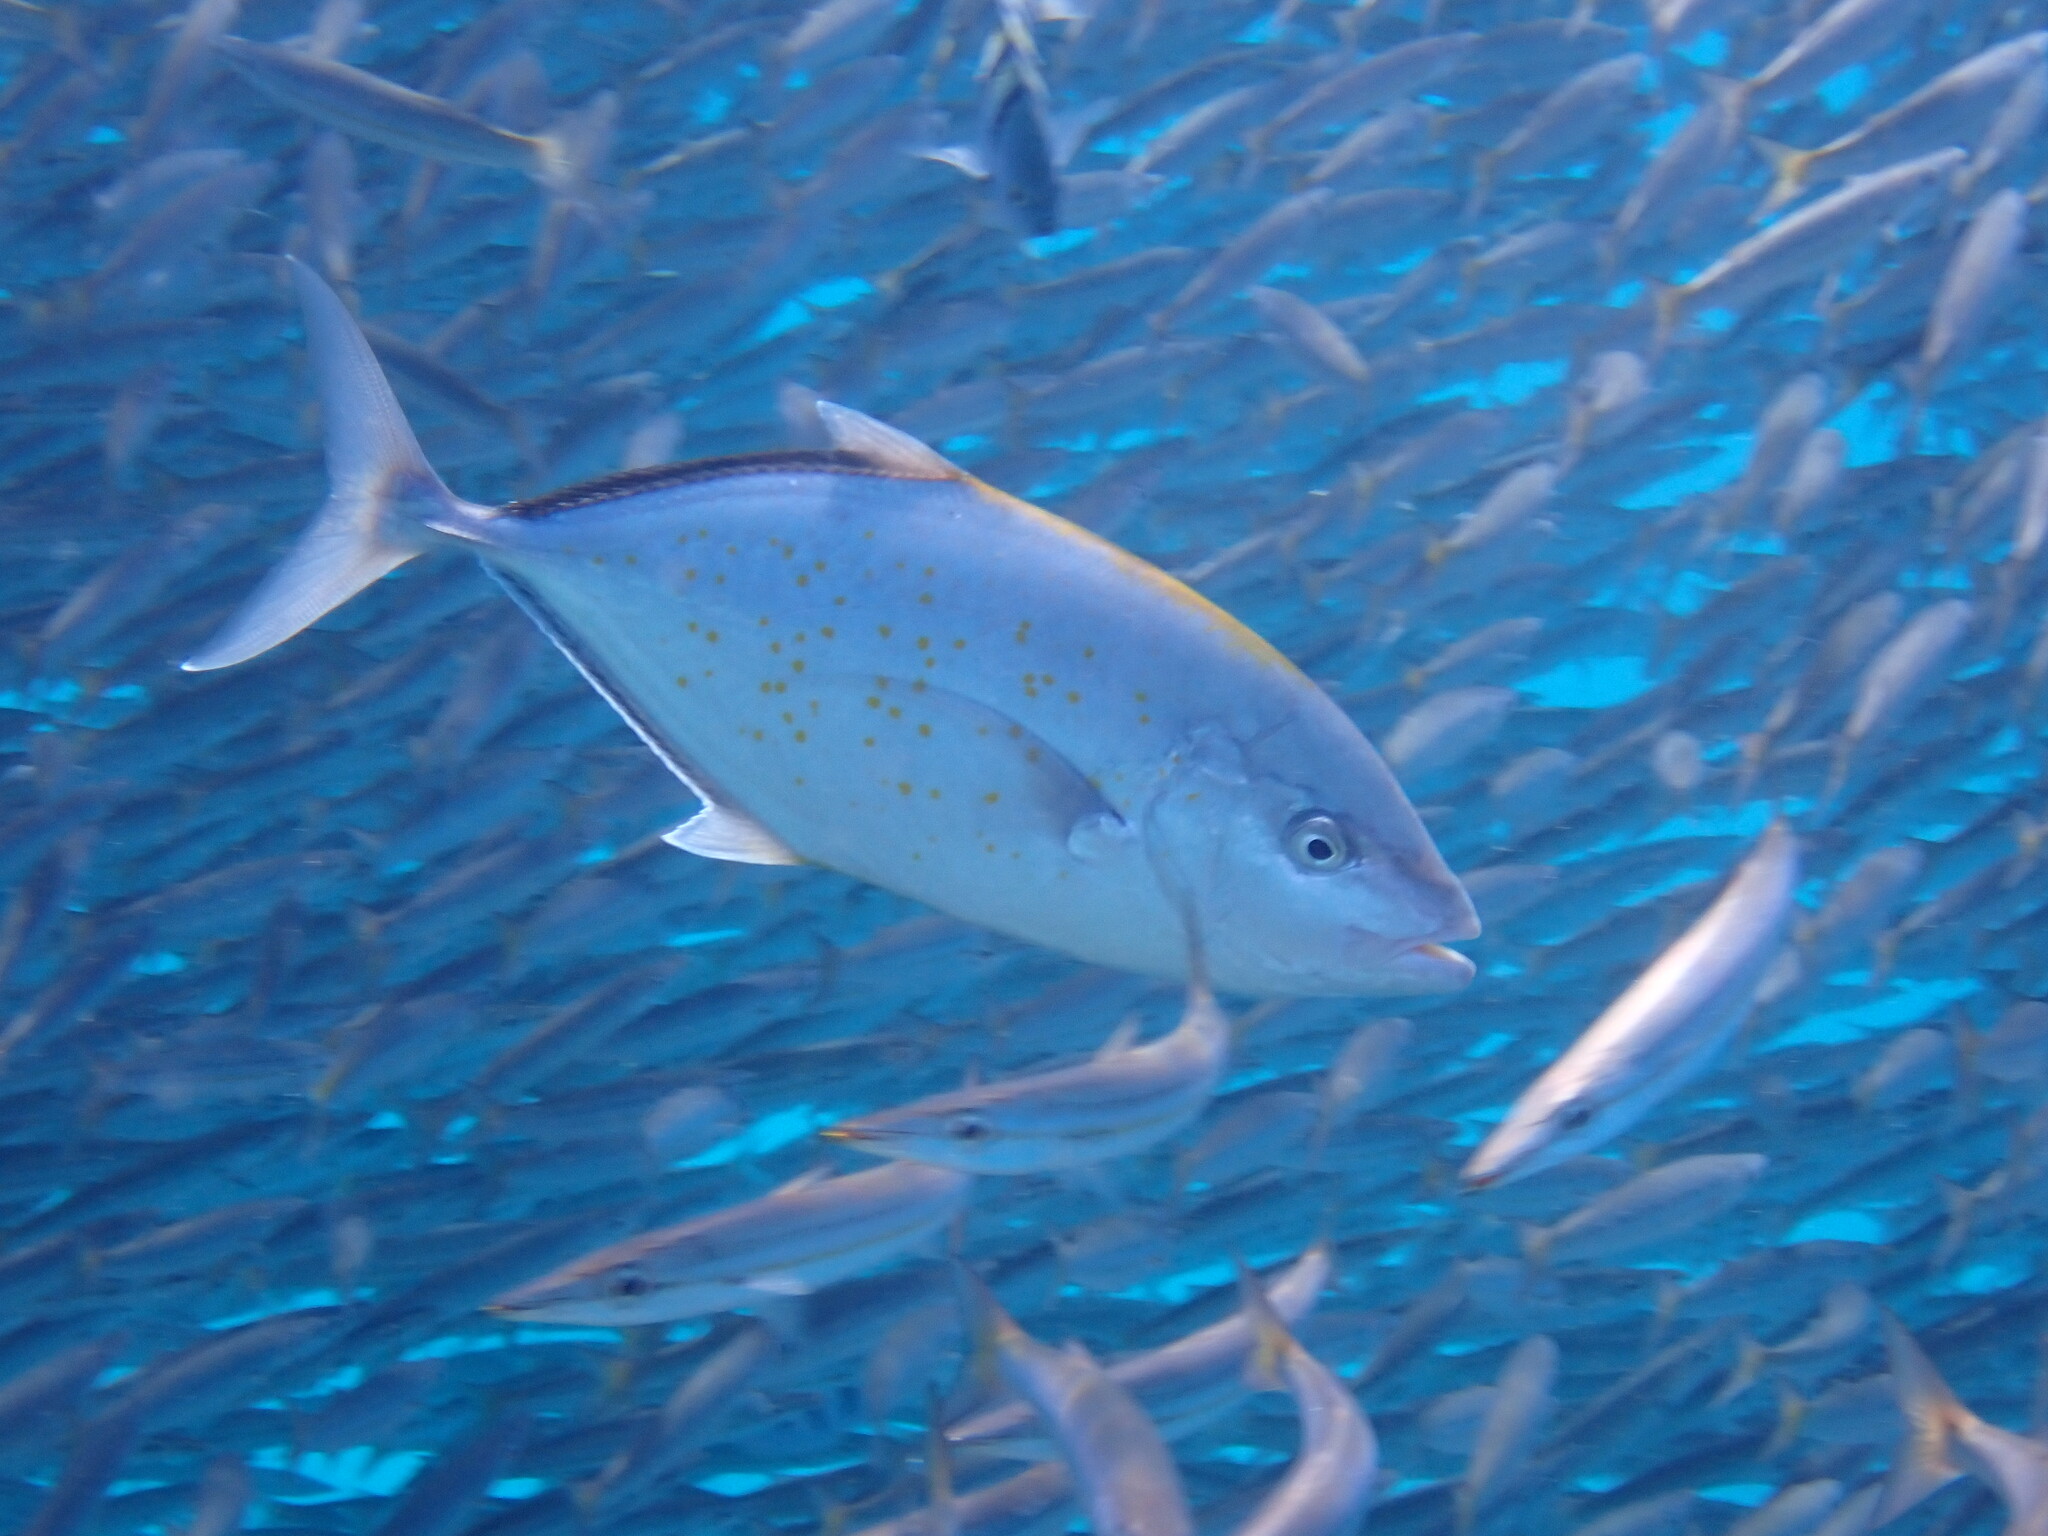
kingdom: Animalia
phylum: Chordata
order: Perciformes
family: Carangidae
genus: Flavocaranx
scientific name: Flavocaranx bajad
